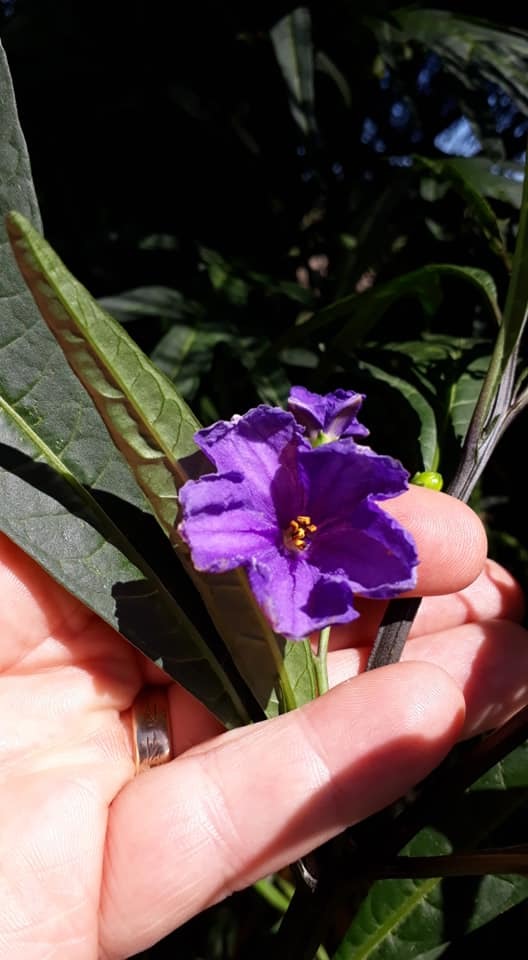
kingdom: Plantae
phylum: Tracheophyta
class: Magnoliopsida
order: Solanales
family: Solanaceae
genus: Solanum
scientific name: Solanum laciniatum
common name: Kangaroo-apple
